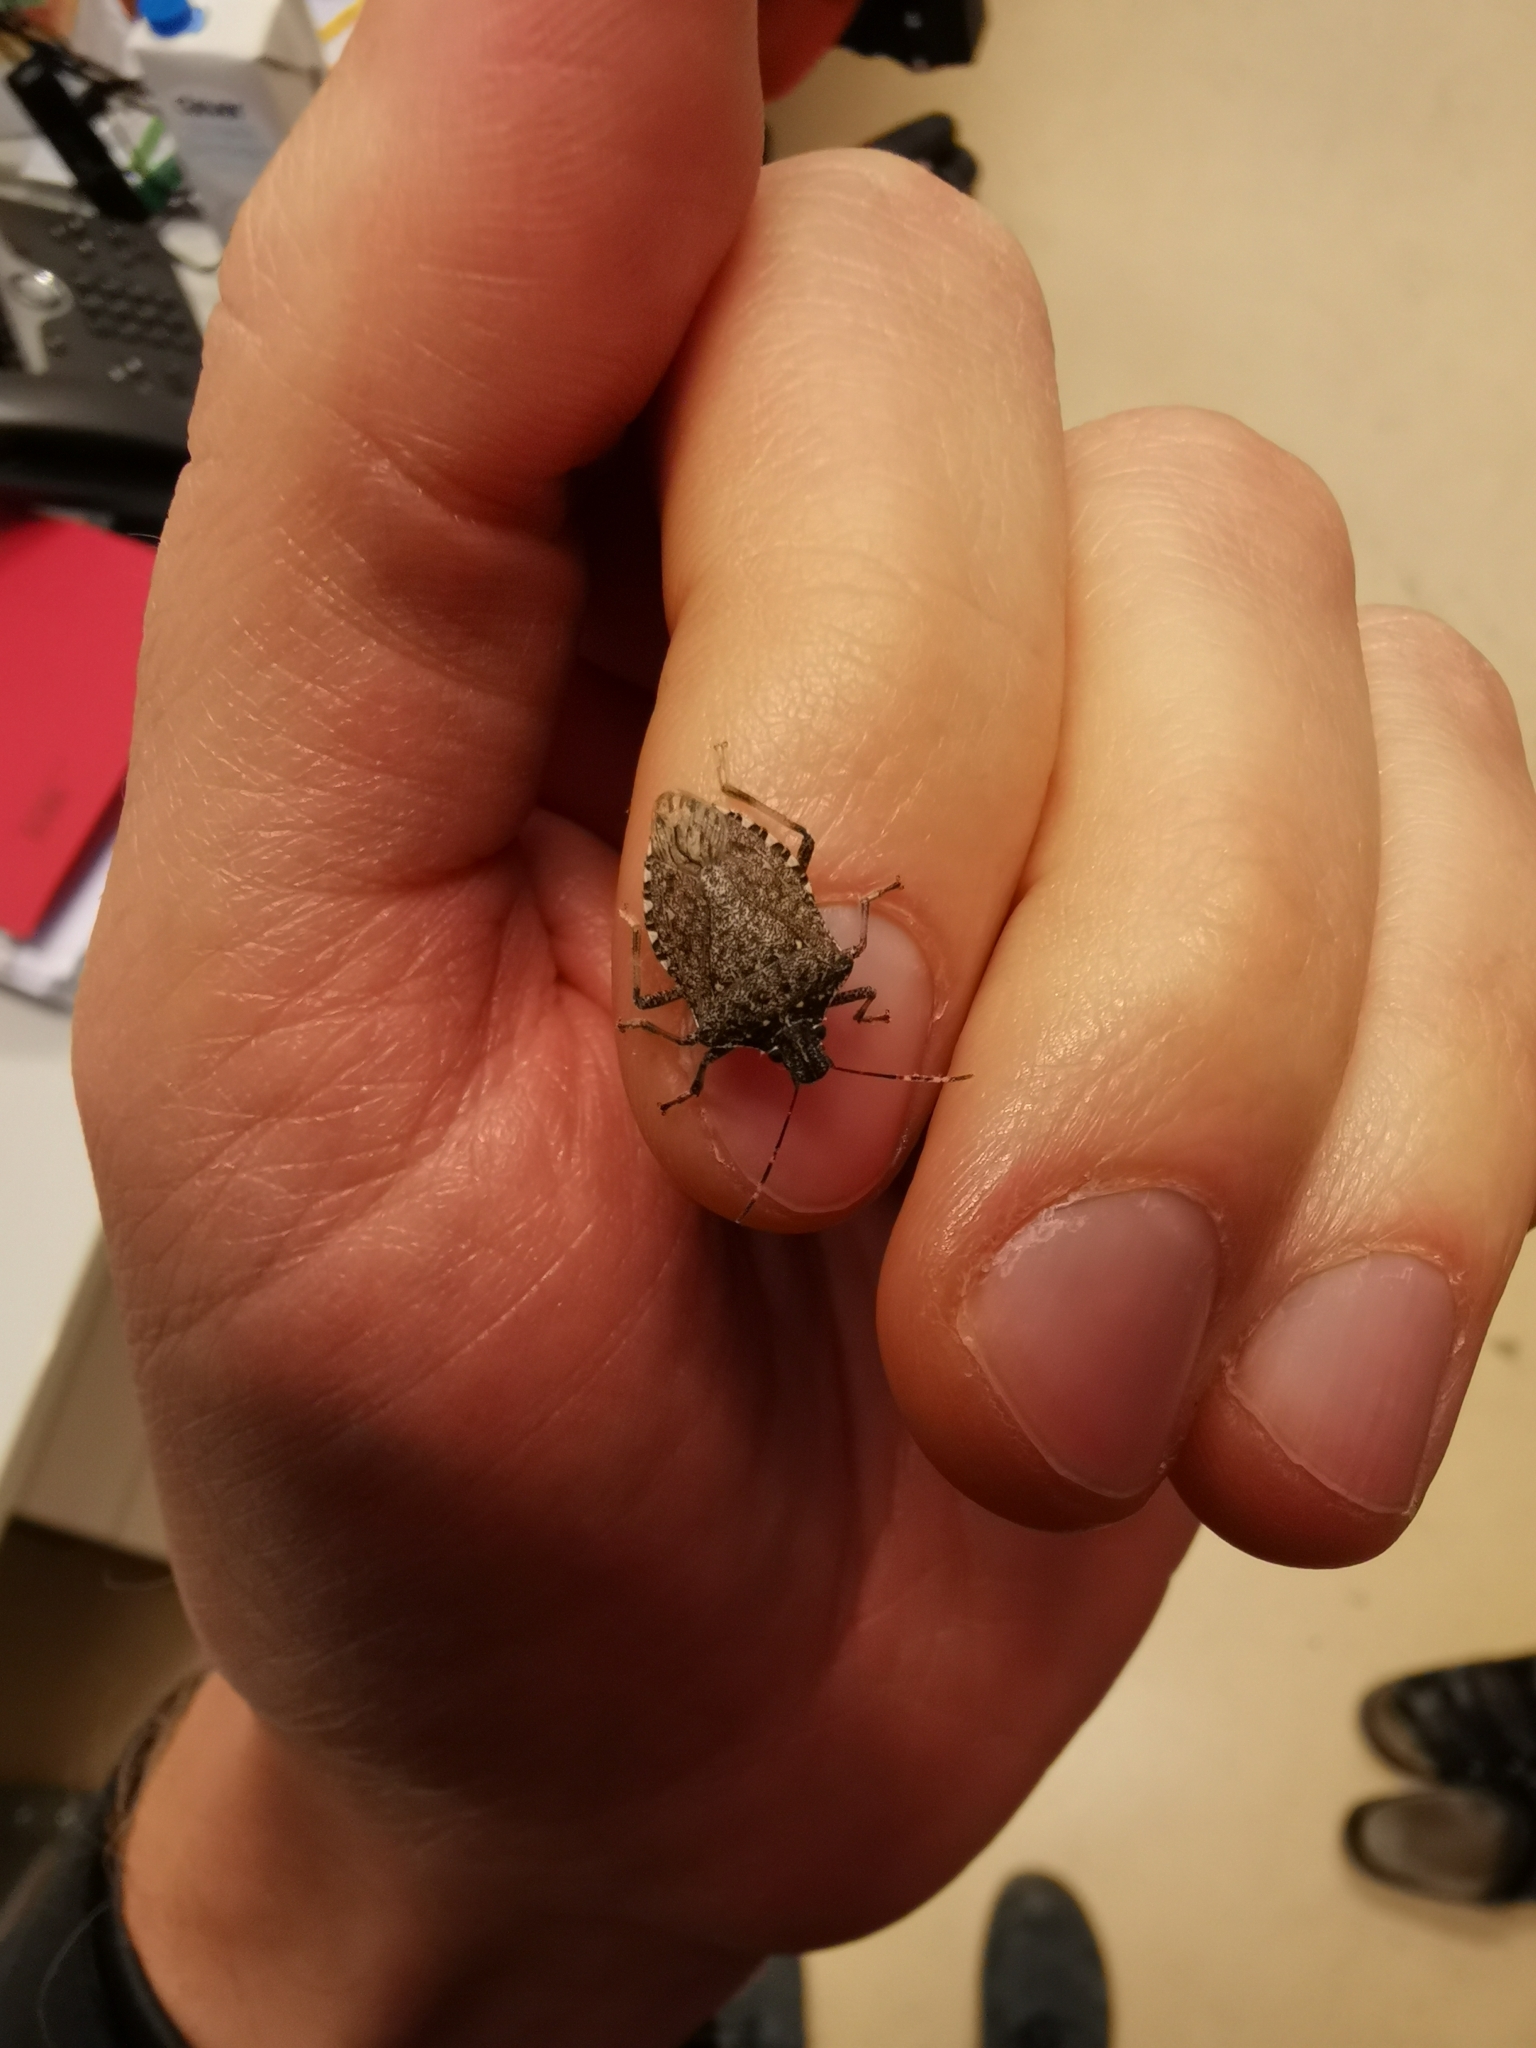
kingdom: Animalia
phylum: Arthropoda
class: Insecta
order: Hemiptera
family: Pentatomidae
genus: Halyomorpha
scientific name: Halyomorpha halys
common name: Brown marmorated stink bug
